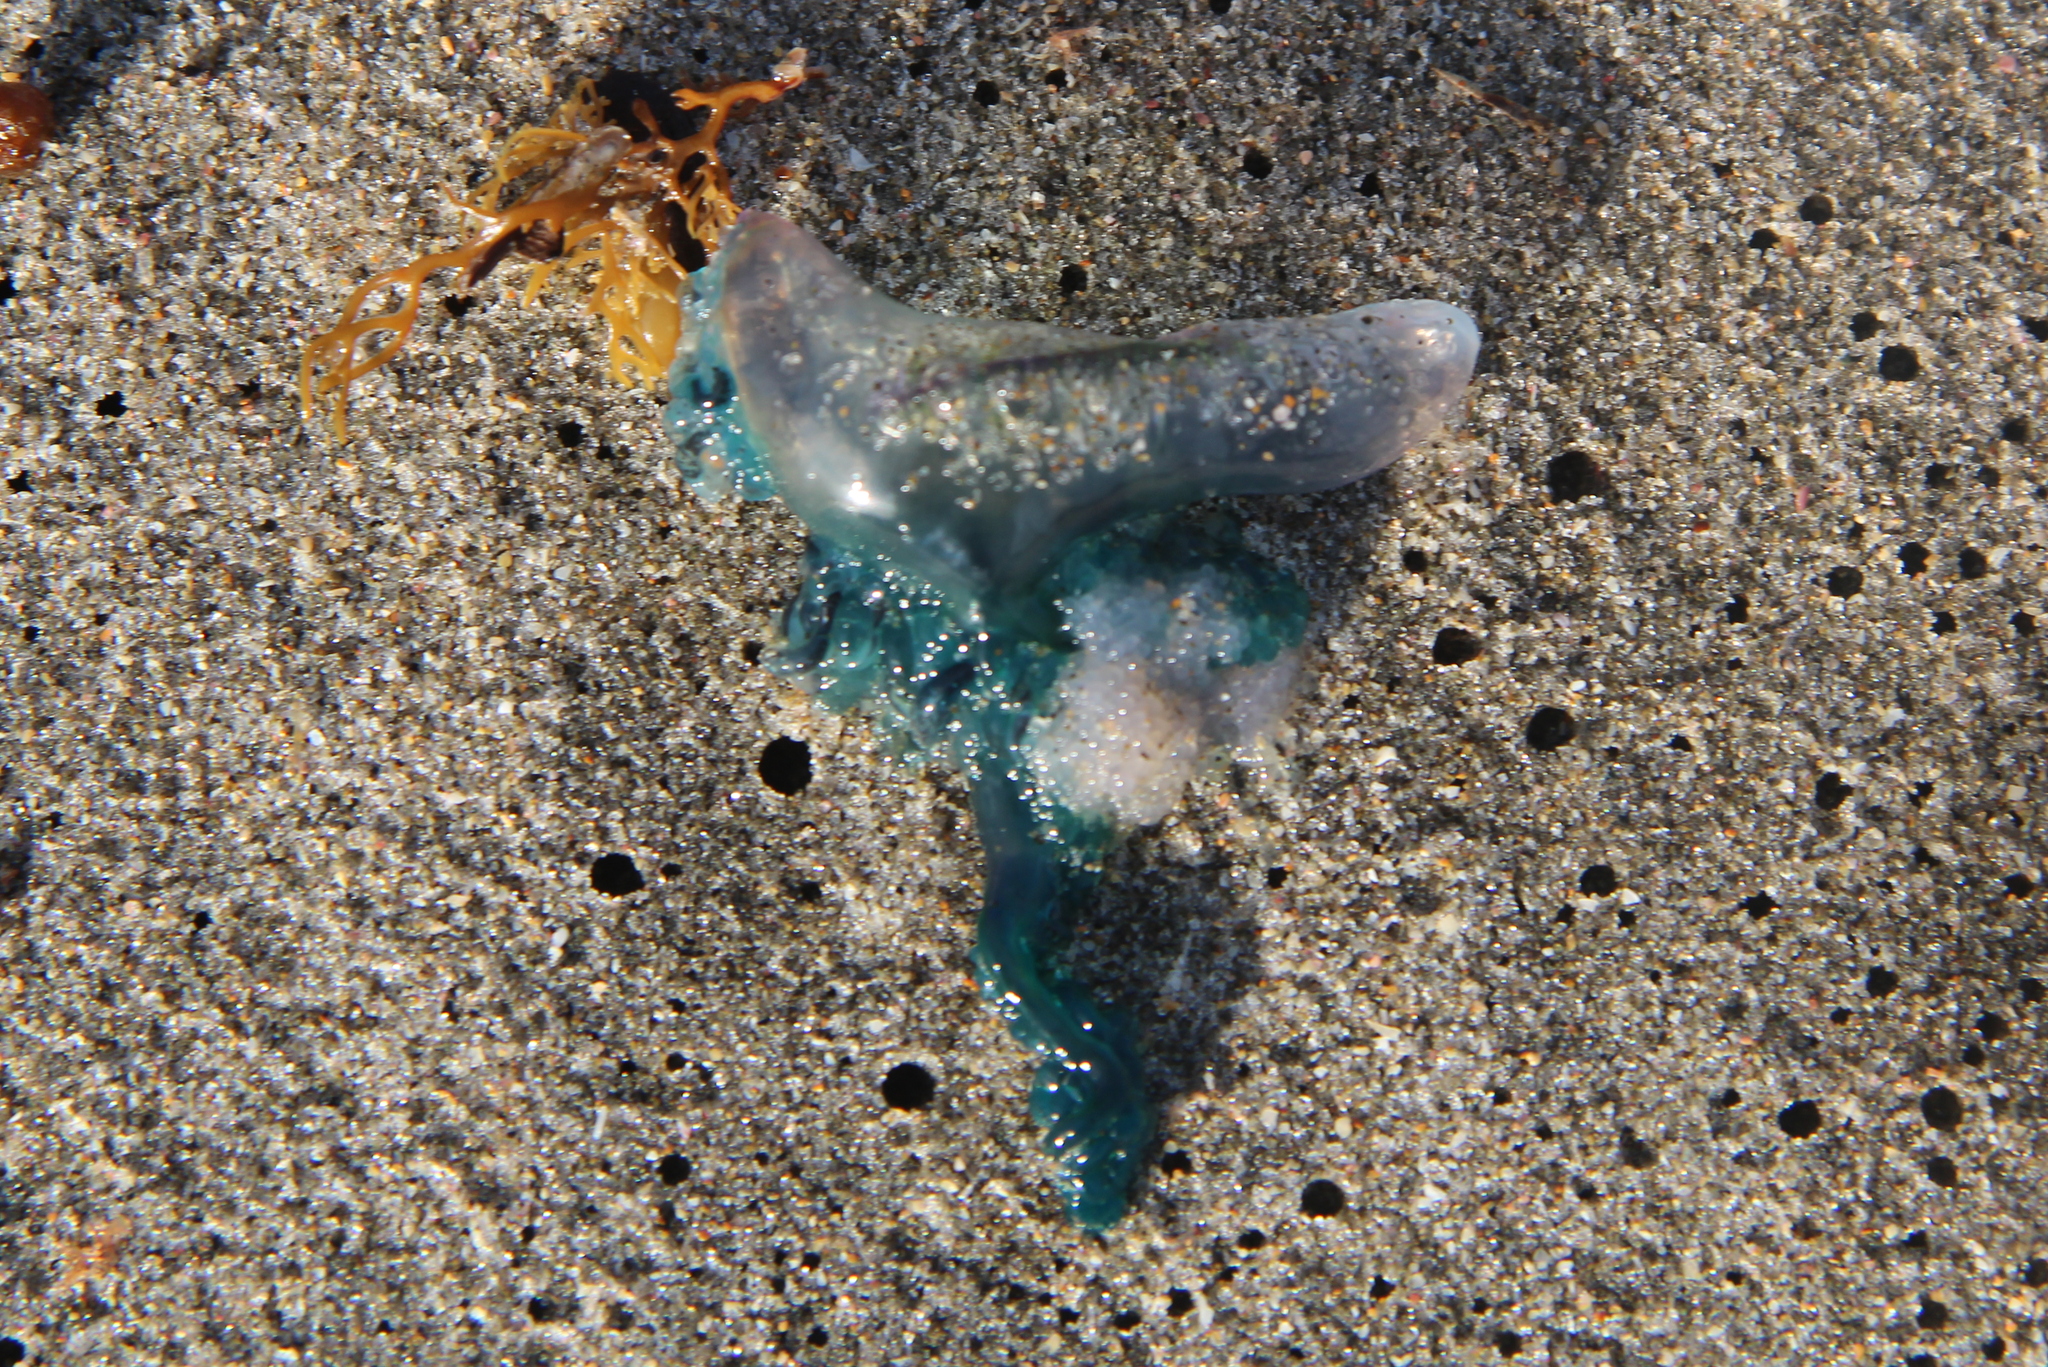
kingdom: Animalia
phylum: Cnidaria
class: Hydrozoa
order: Siphonophorae
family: Physaliidae
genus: Physalia
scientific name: Physalia physalis
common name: Portuguese man-of-war
